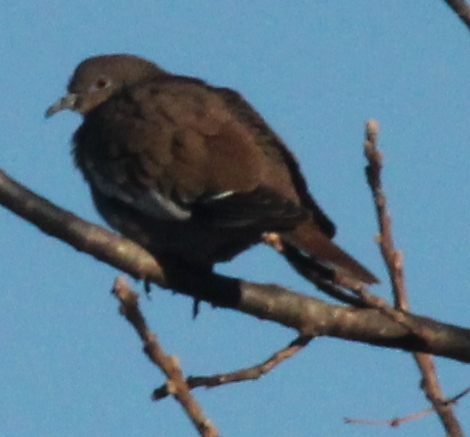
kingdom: Animalia
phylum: Chordata
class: Aves
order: Columbiformes
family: Columbidae
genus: Zenaida
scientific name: Zenaida asiatica
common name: White-winged dove
